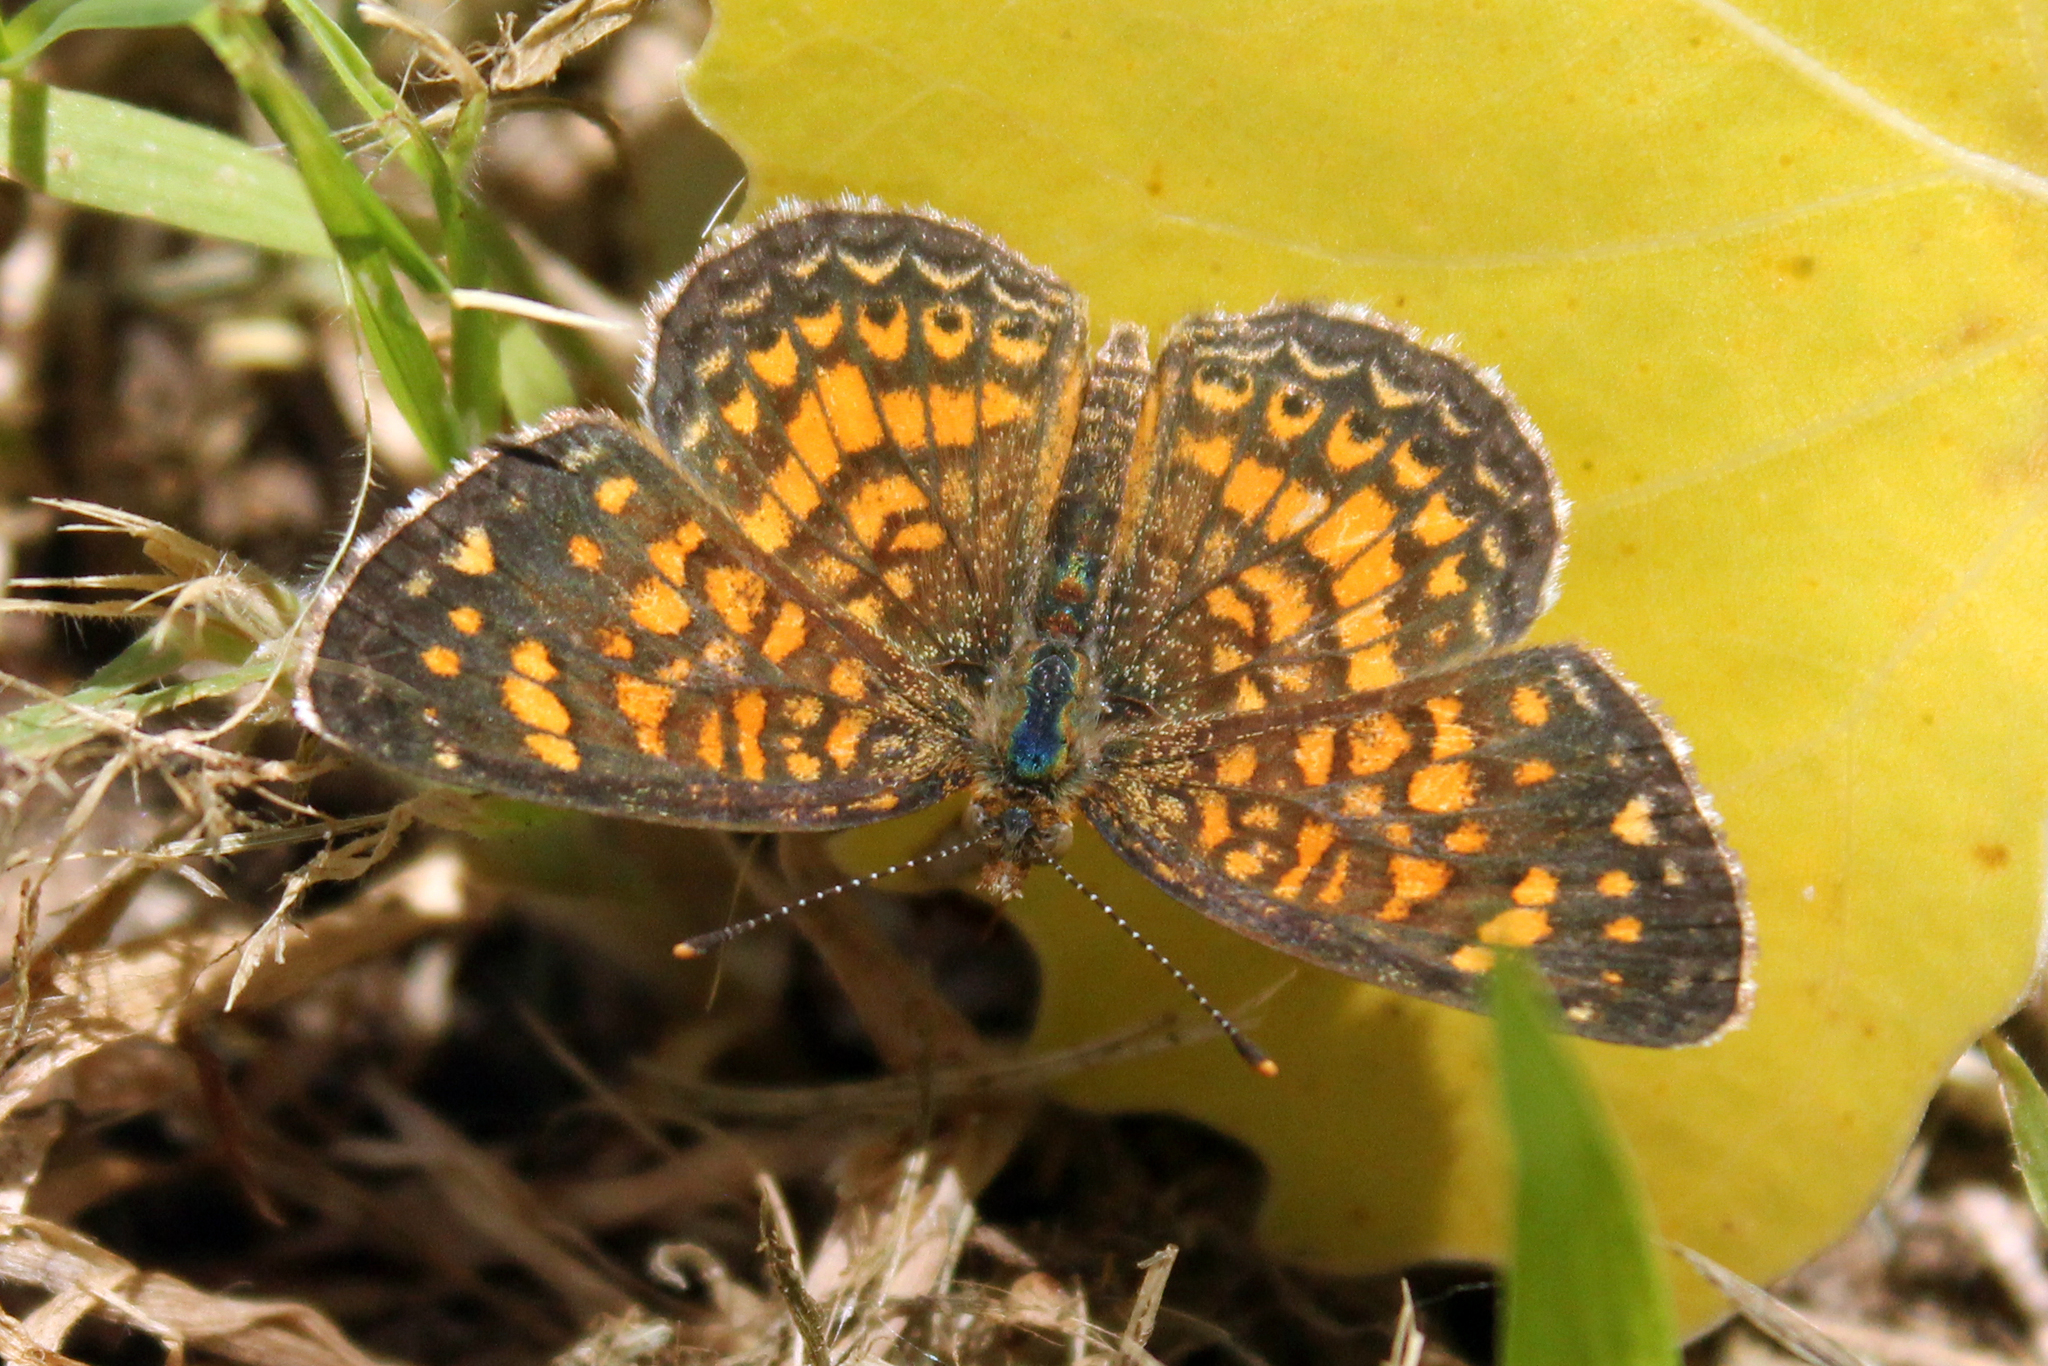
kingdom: Animalia
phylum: Arthropoda
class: Insecta
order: Lepidoptera
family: Nymphalidae
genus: Phyciodes
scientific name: Phyciodes vesta
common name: Vesta crescent
